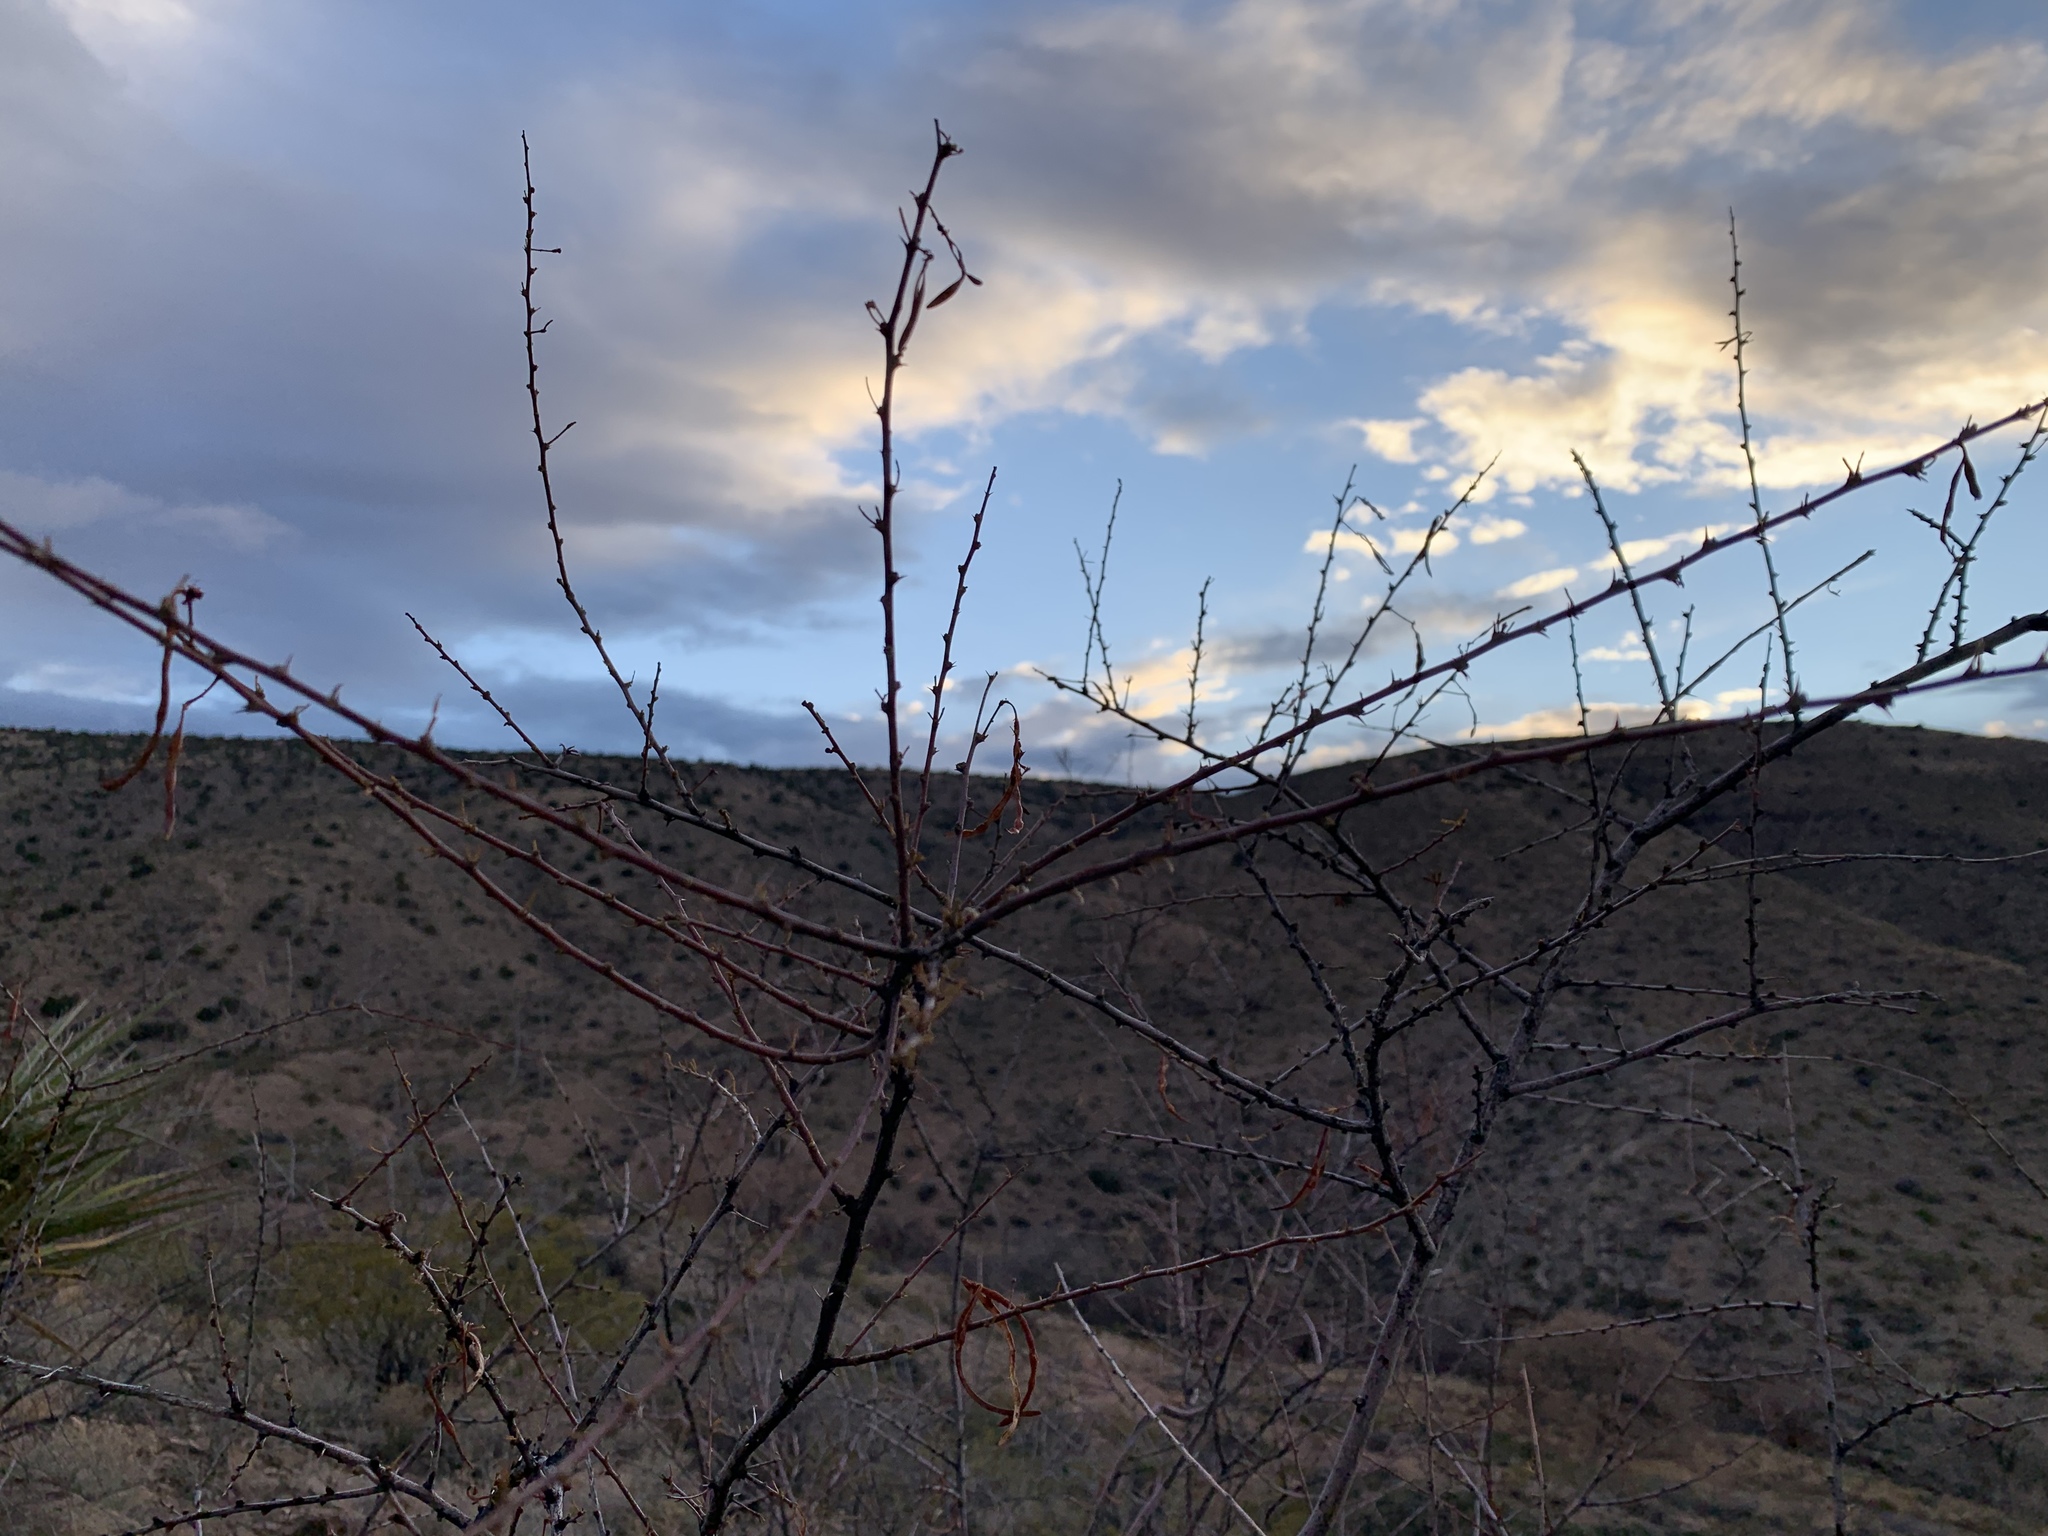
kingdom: Plantae
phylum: Tracheophyta
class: Magnoliopsida
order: Fabales
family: Fabaceae
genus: Vachellia
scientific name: Vachellia constricta
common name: Mescat acacia
